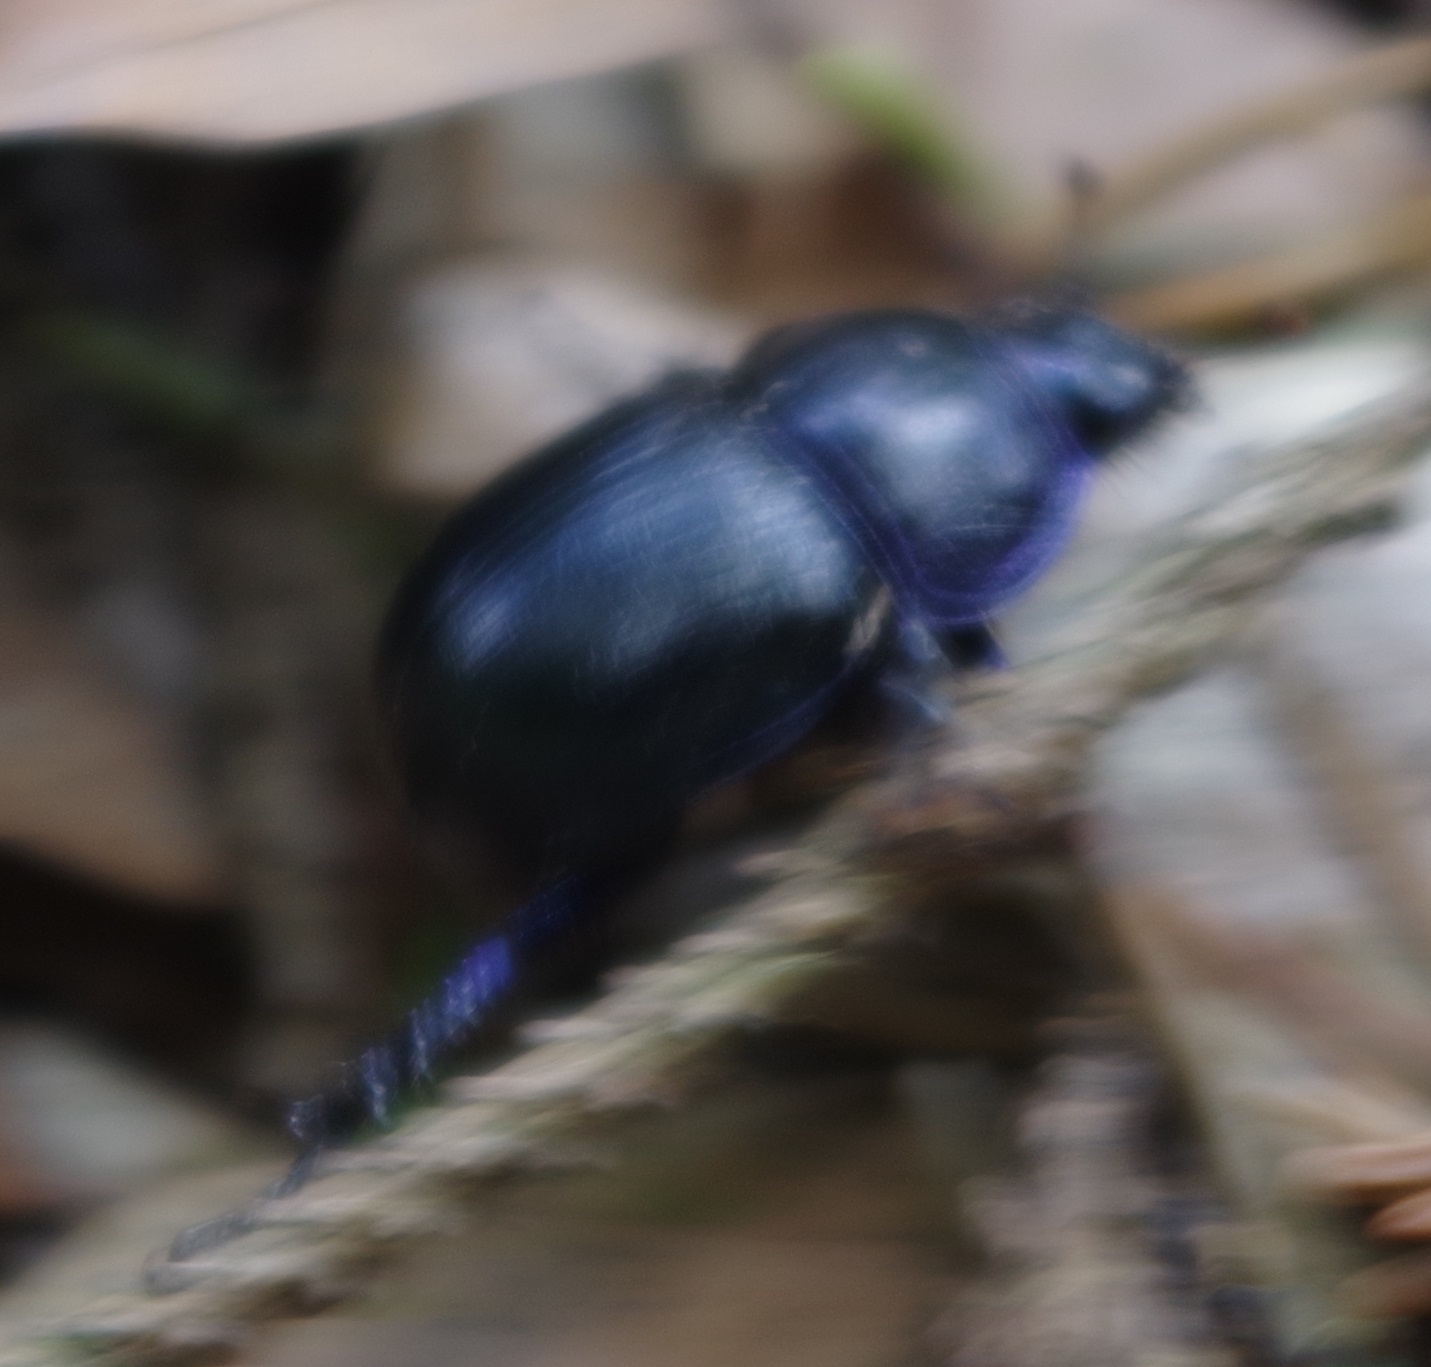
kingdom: Animalia
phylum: Arthropoda
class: Insecta
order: Coleoptera
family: Geotrupidae
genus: Anoplotrupes
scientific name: Anoplotrupes stercorosus
